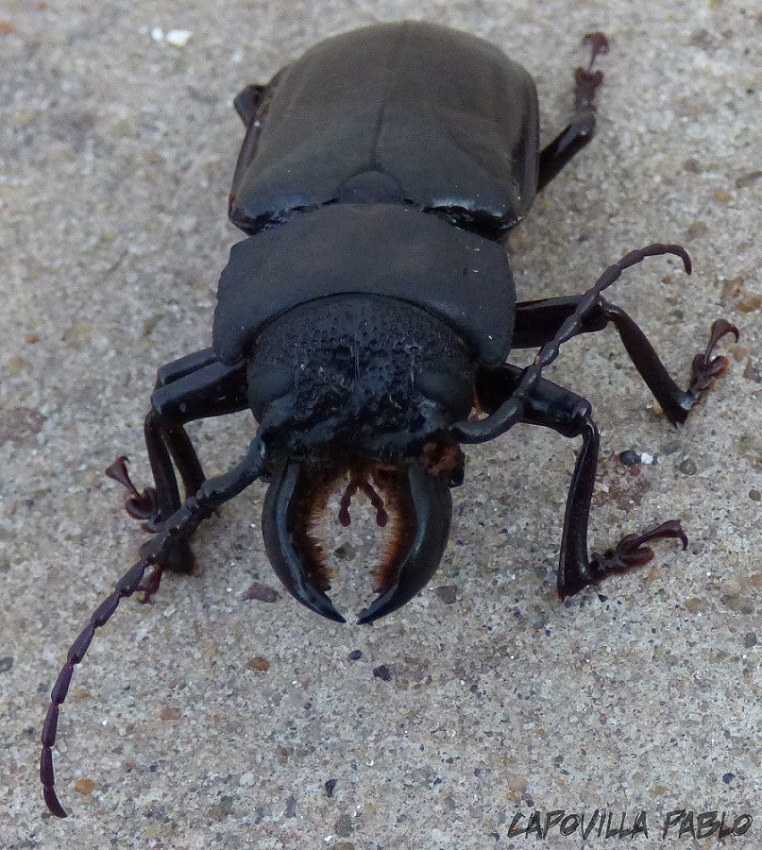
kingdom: Animalia
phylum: Arthropoda
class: Insecta
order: Coleoptera
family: Cerambycidae
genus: Mallodon
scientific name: Mallodon dasystomum
